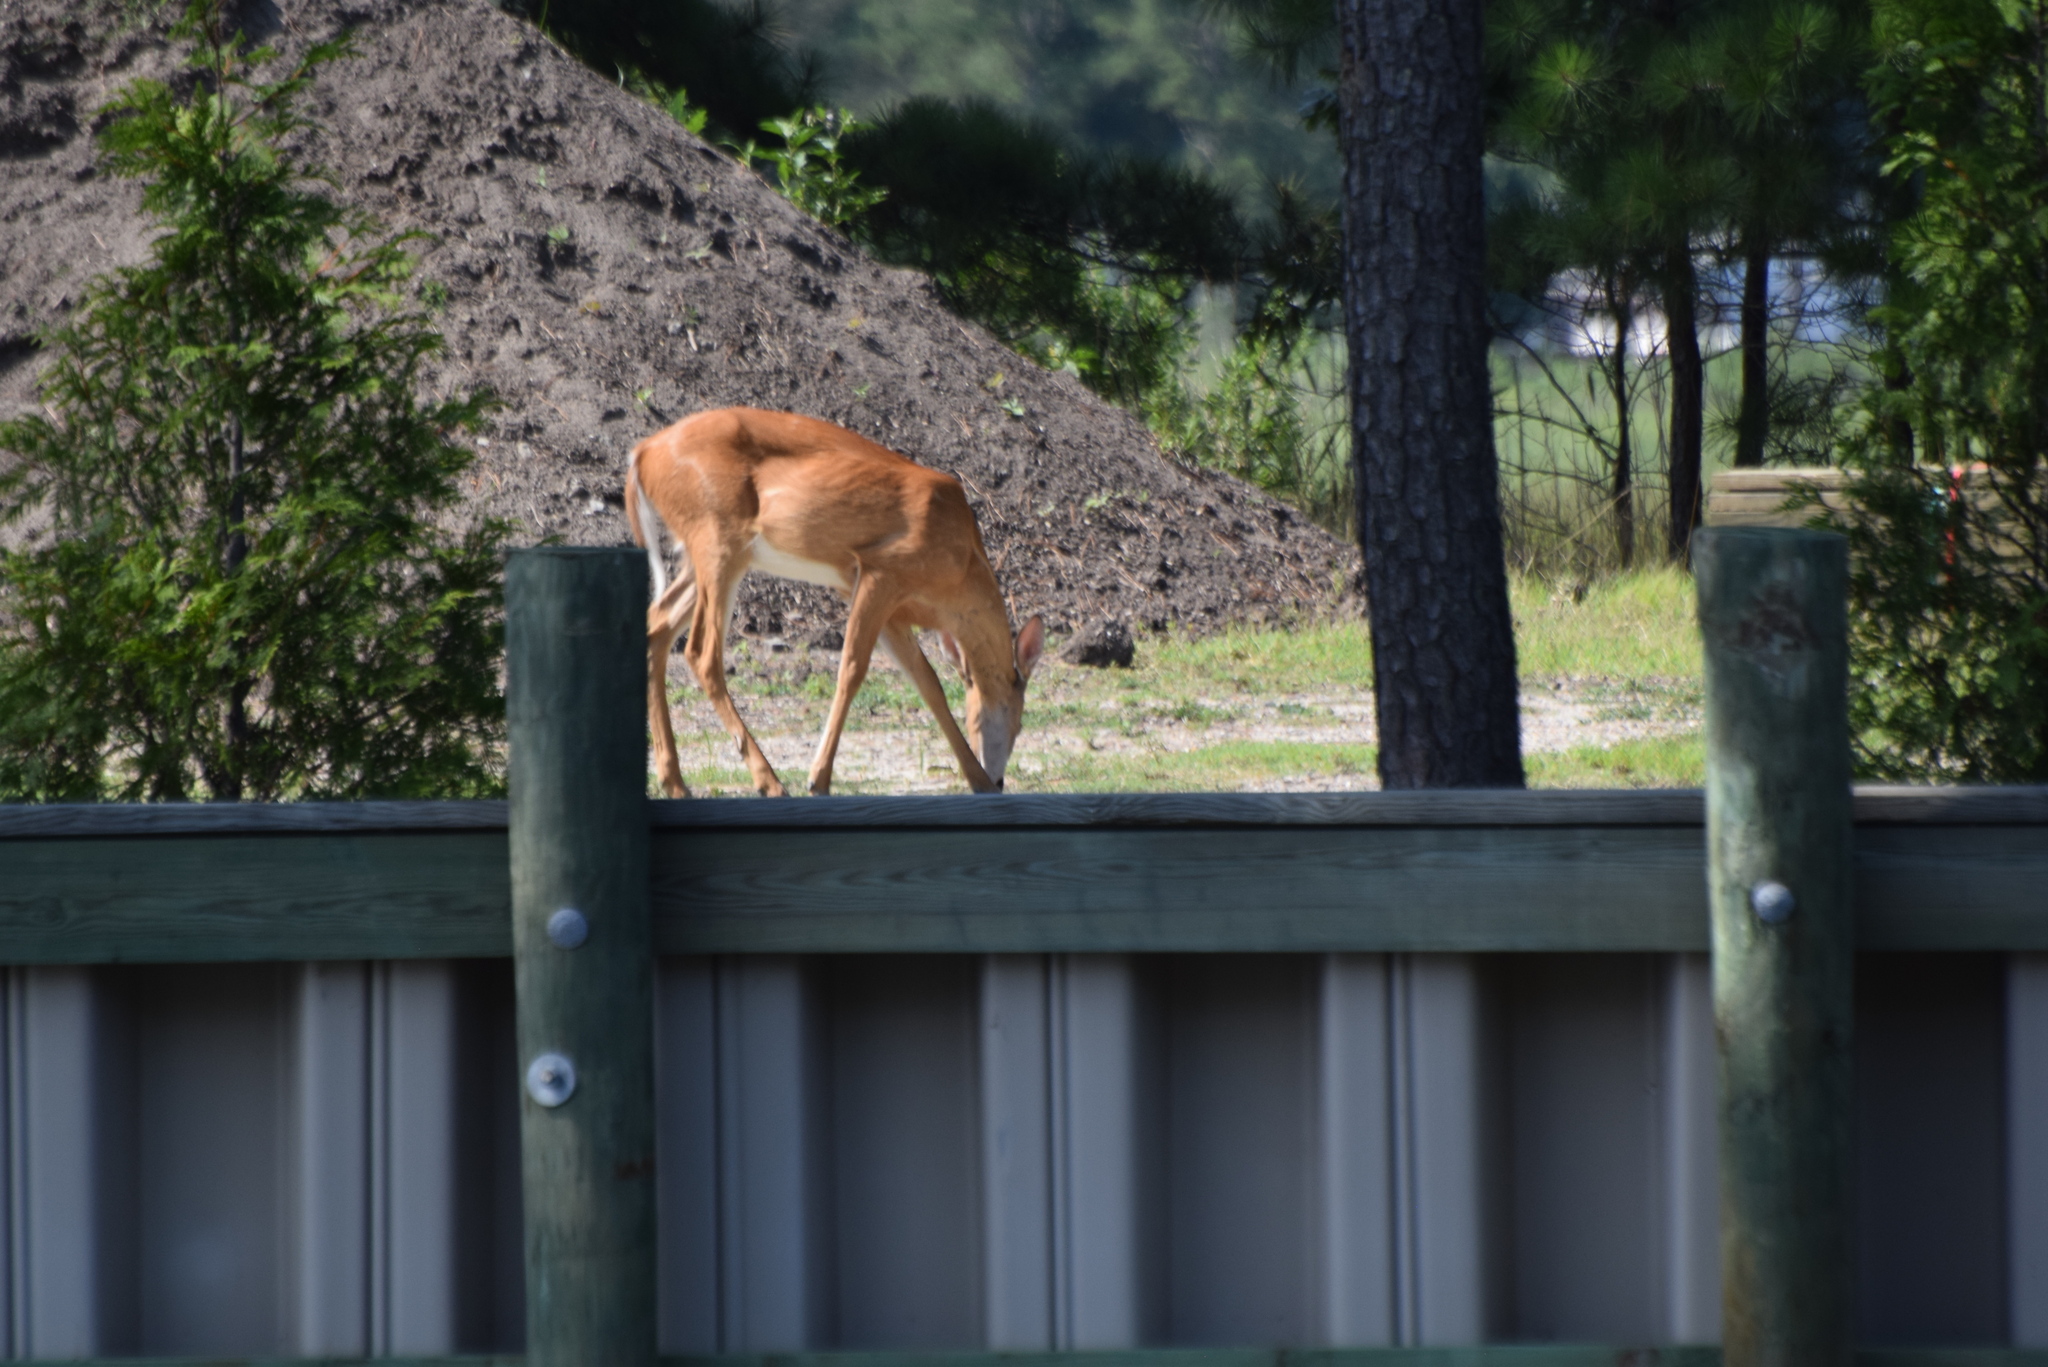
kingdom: Animalia
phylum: Chordata
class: Mammalia
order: Artiodactyla
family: Cervidae
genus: Odocoileus
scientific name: Odocoileus virginianus
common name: White-tailed deer
